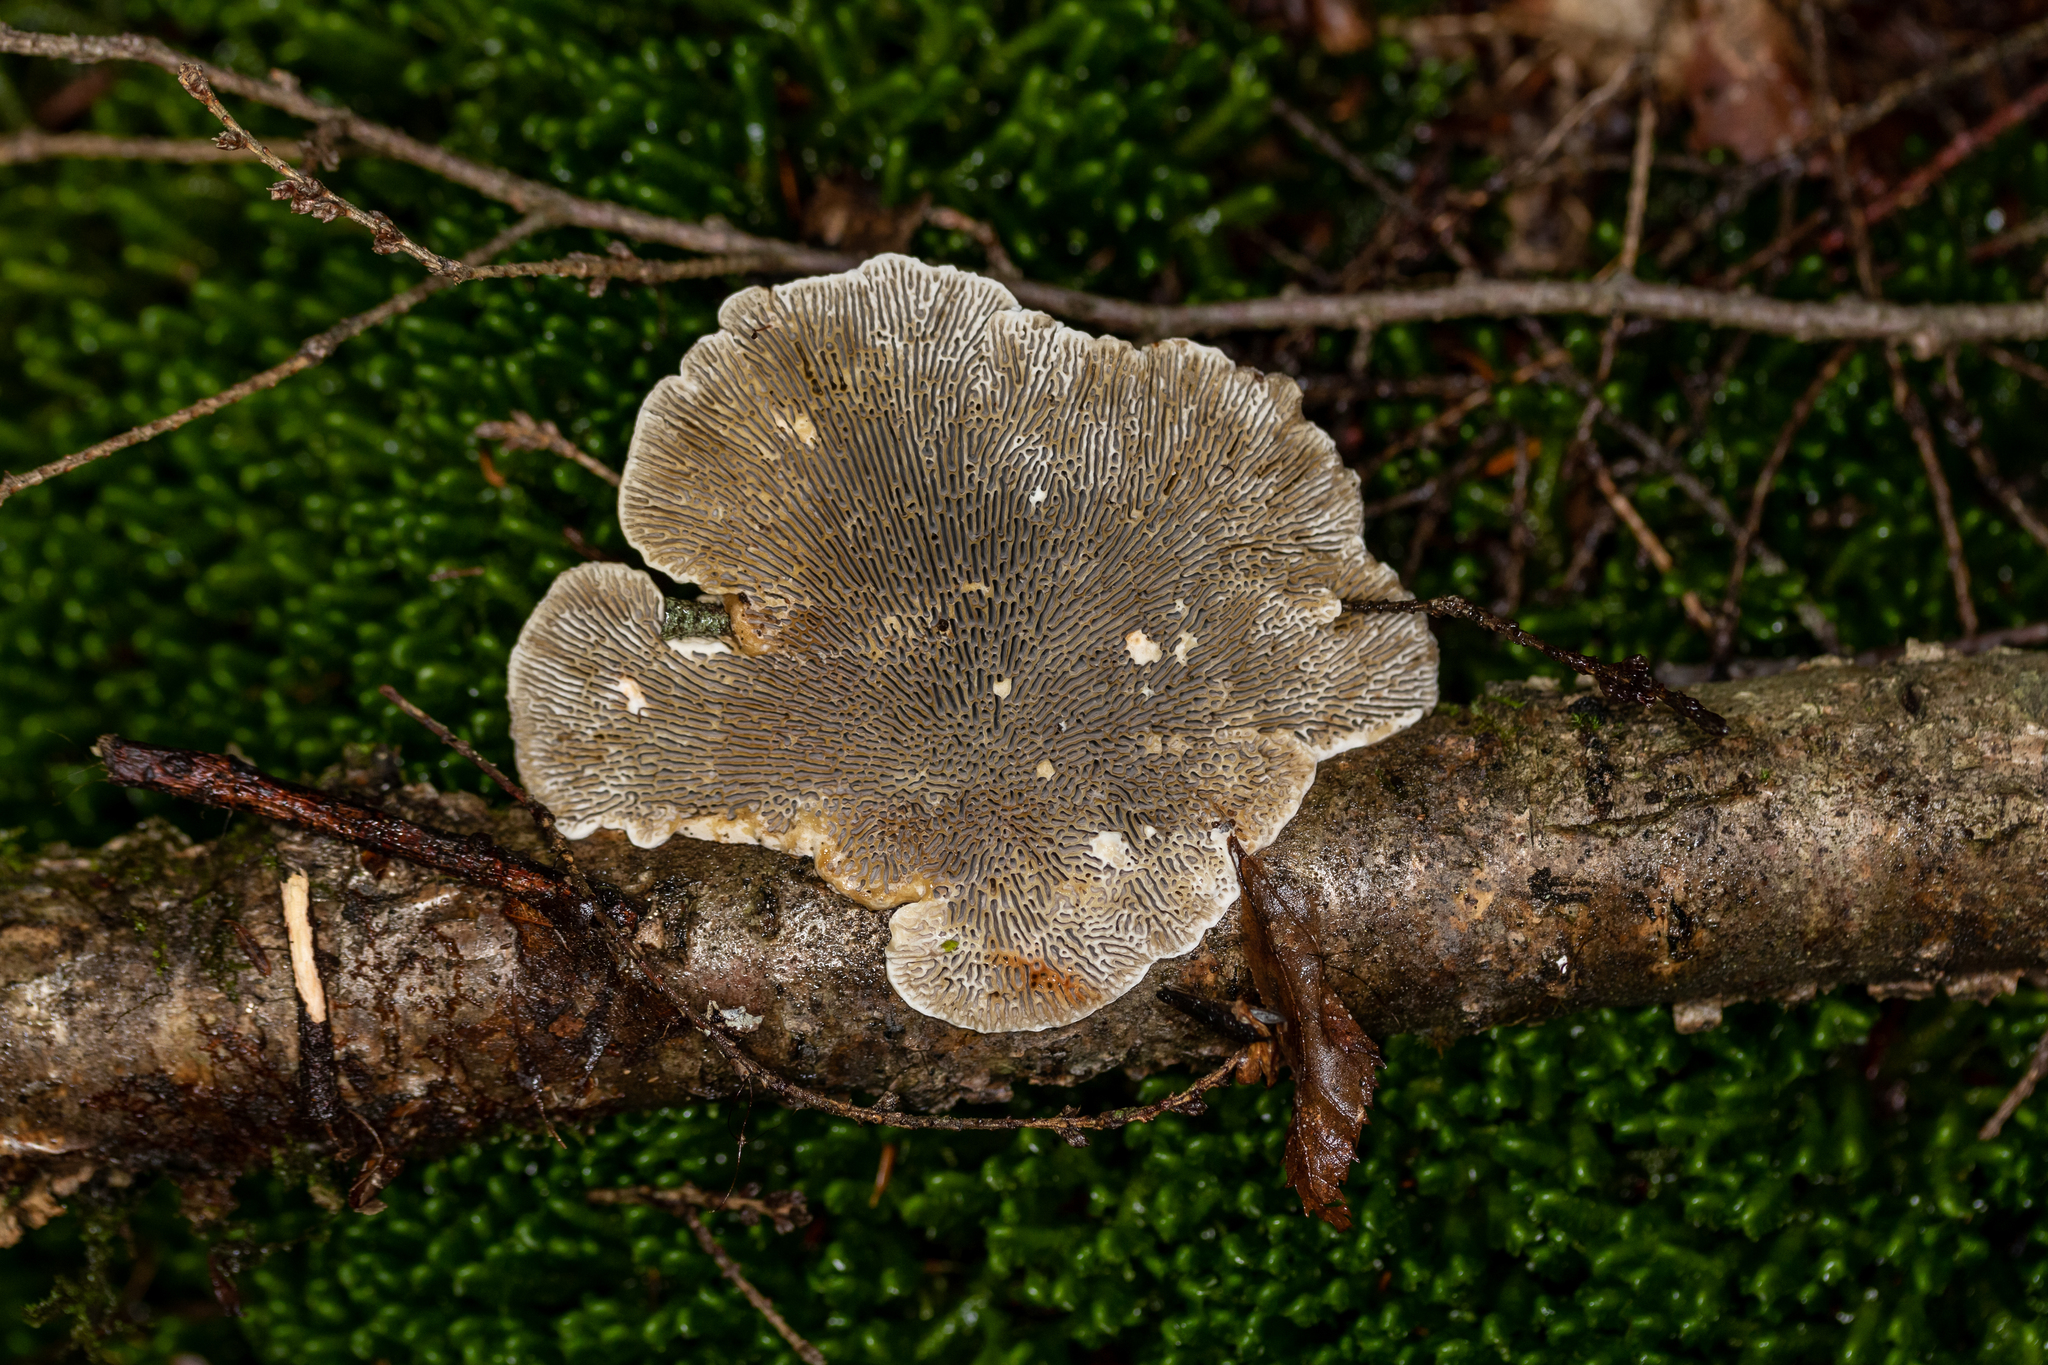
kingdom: Fungi
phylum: Basidiomycota
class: Agaricomycetes
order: Polyporales
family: Polyporaceae
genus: Daedaleopsis
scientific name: Daedaleopsis confragosa
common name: Blushing bracket
